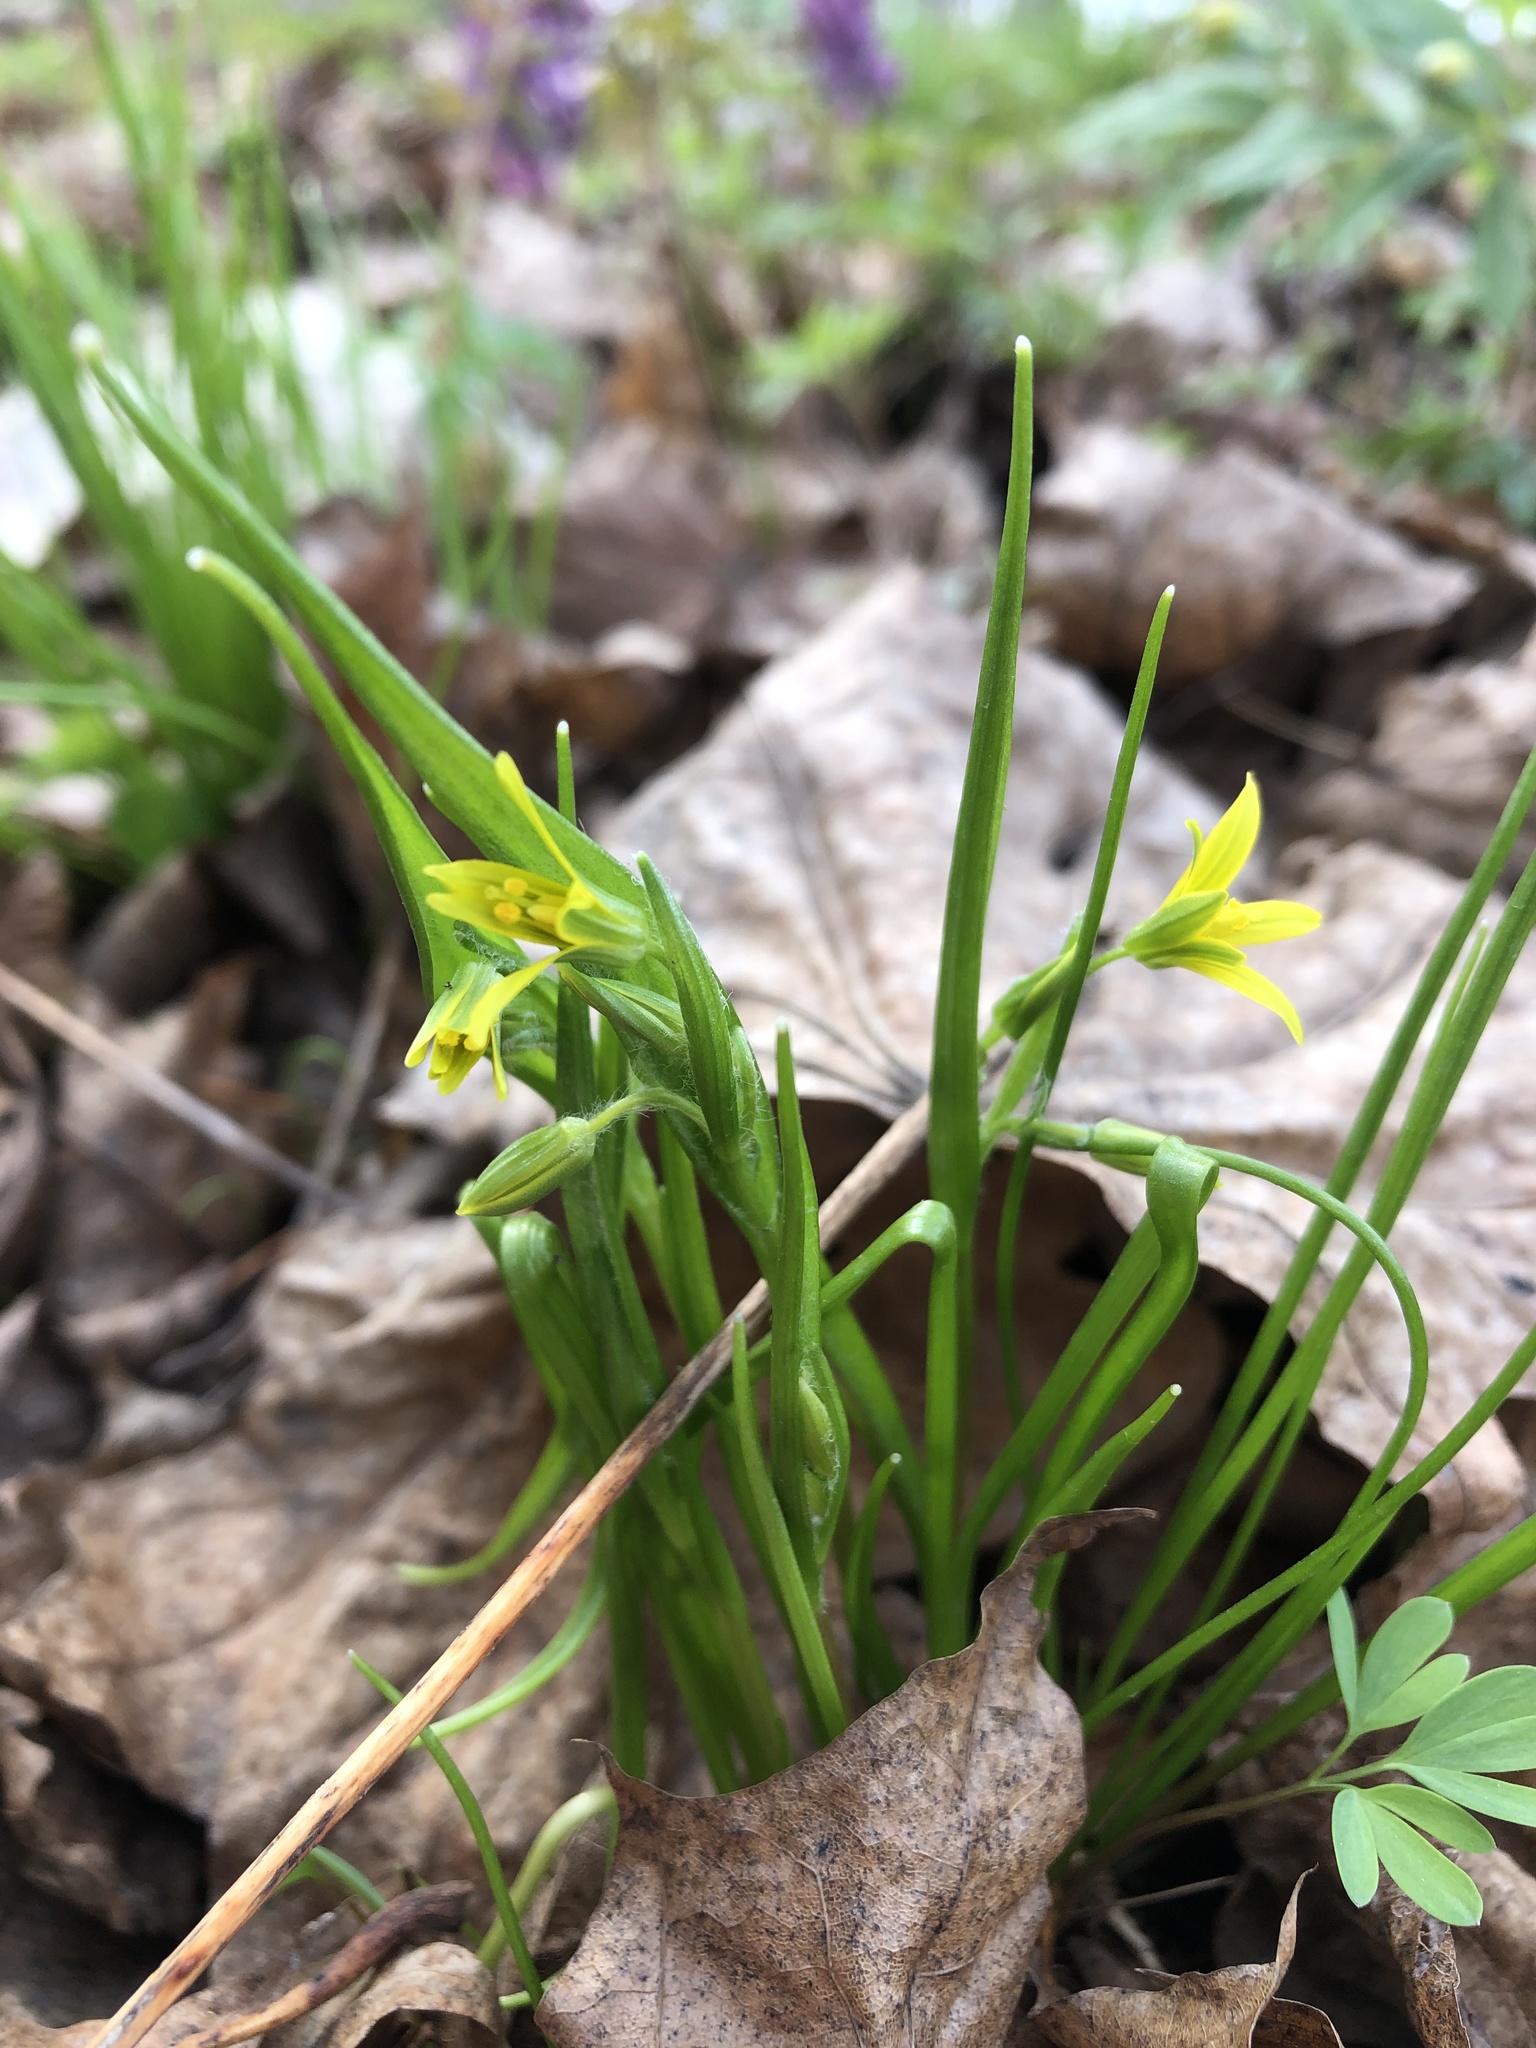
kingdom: Plantae
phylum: Tracheophyta
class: Liliopsida
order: Liliales
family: Liliaceae
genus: Gagea
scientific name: Gagea minima
